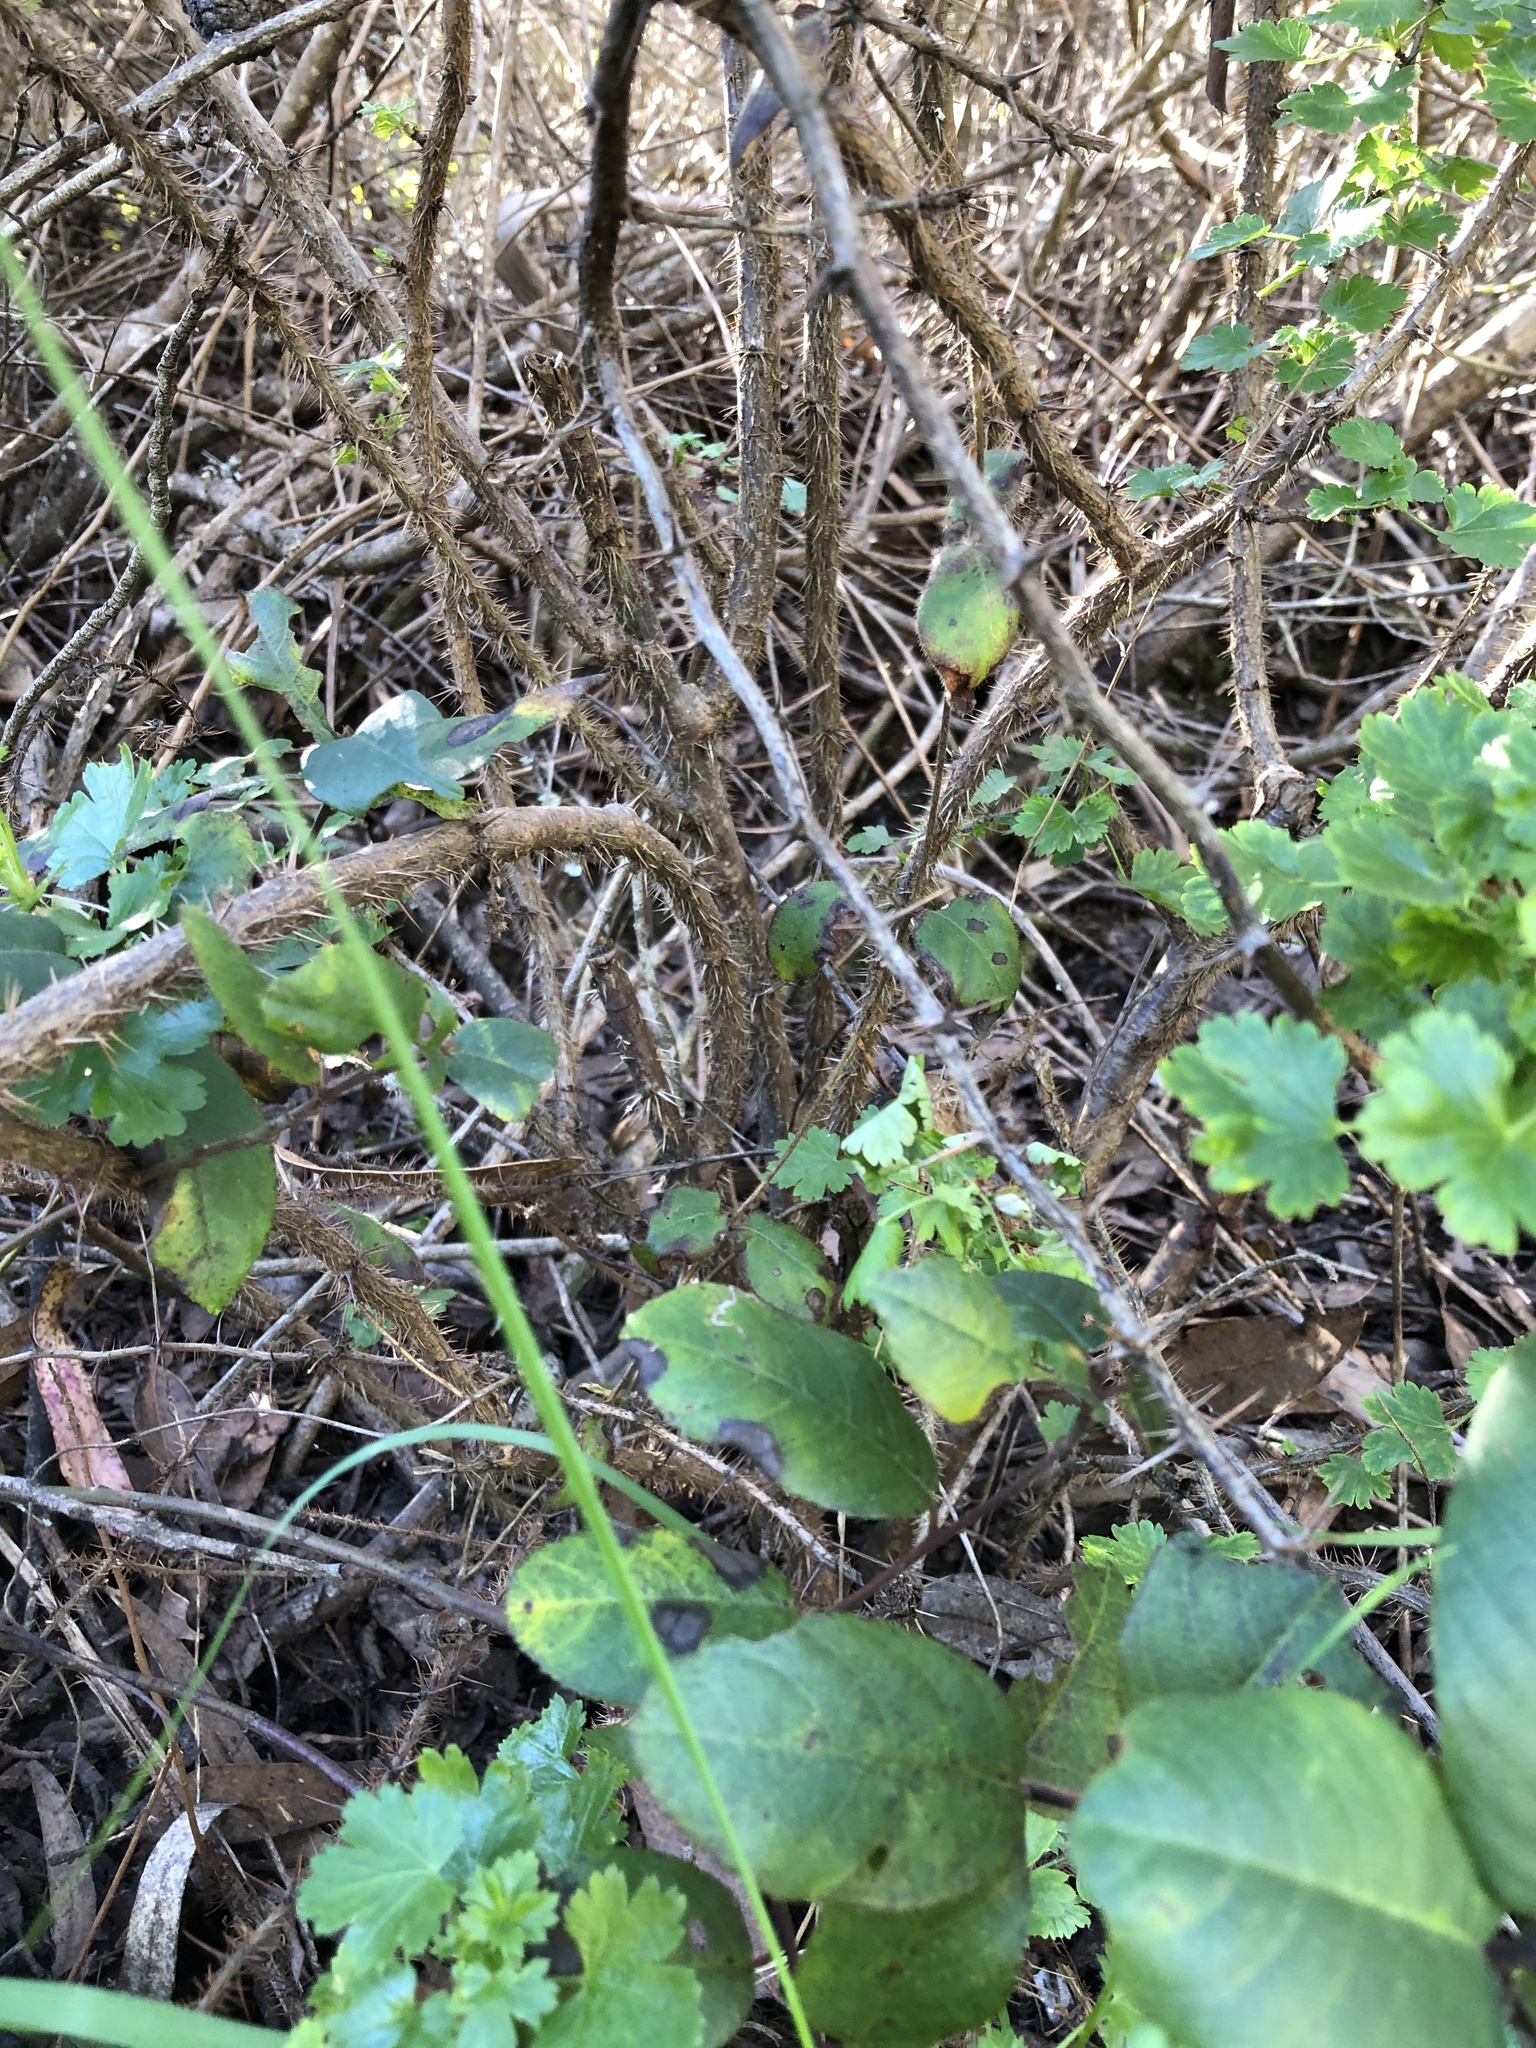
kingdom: Plantae
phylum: Tracheophyta
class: Magnoliopsida
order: Saxifragales
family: Grossulariaceae
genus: Ribes
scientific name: Ribes menziesii
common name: Canyon gooseberry
